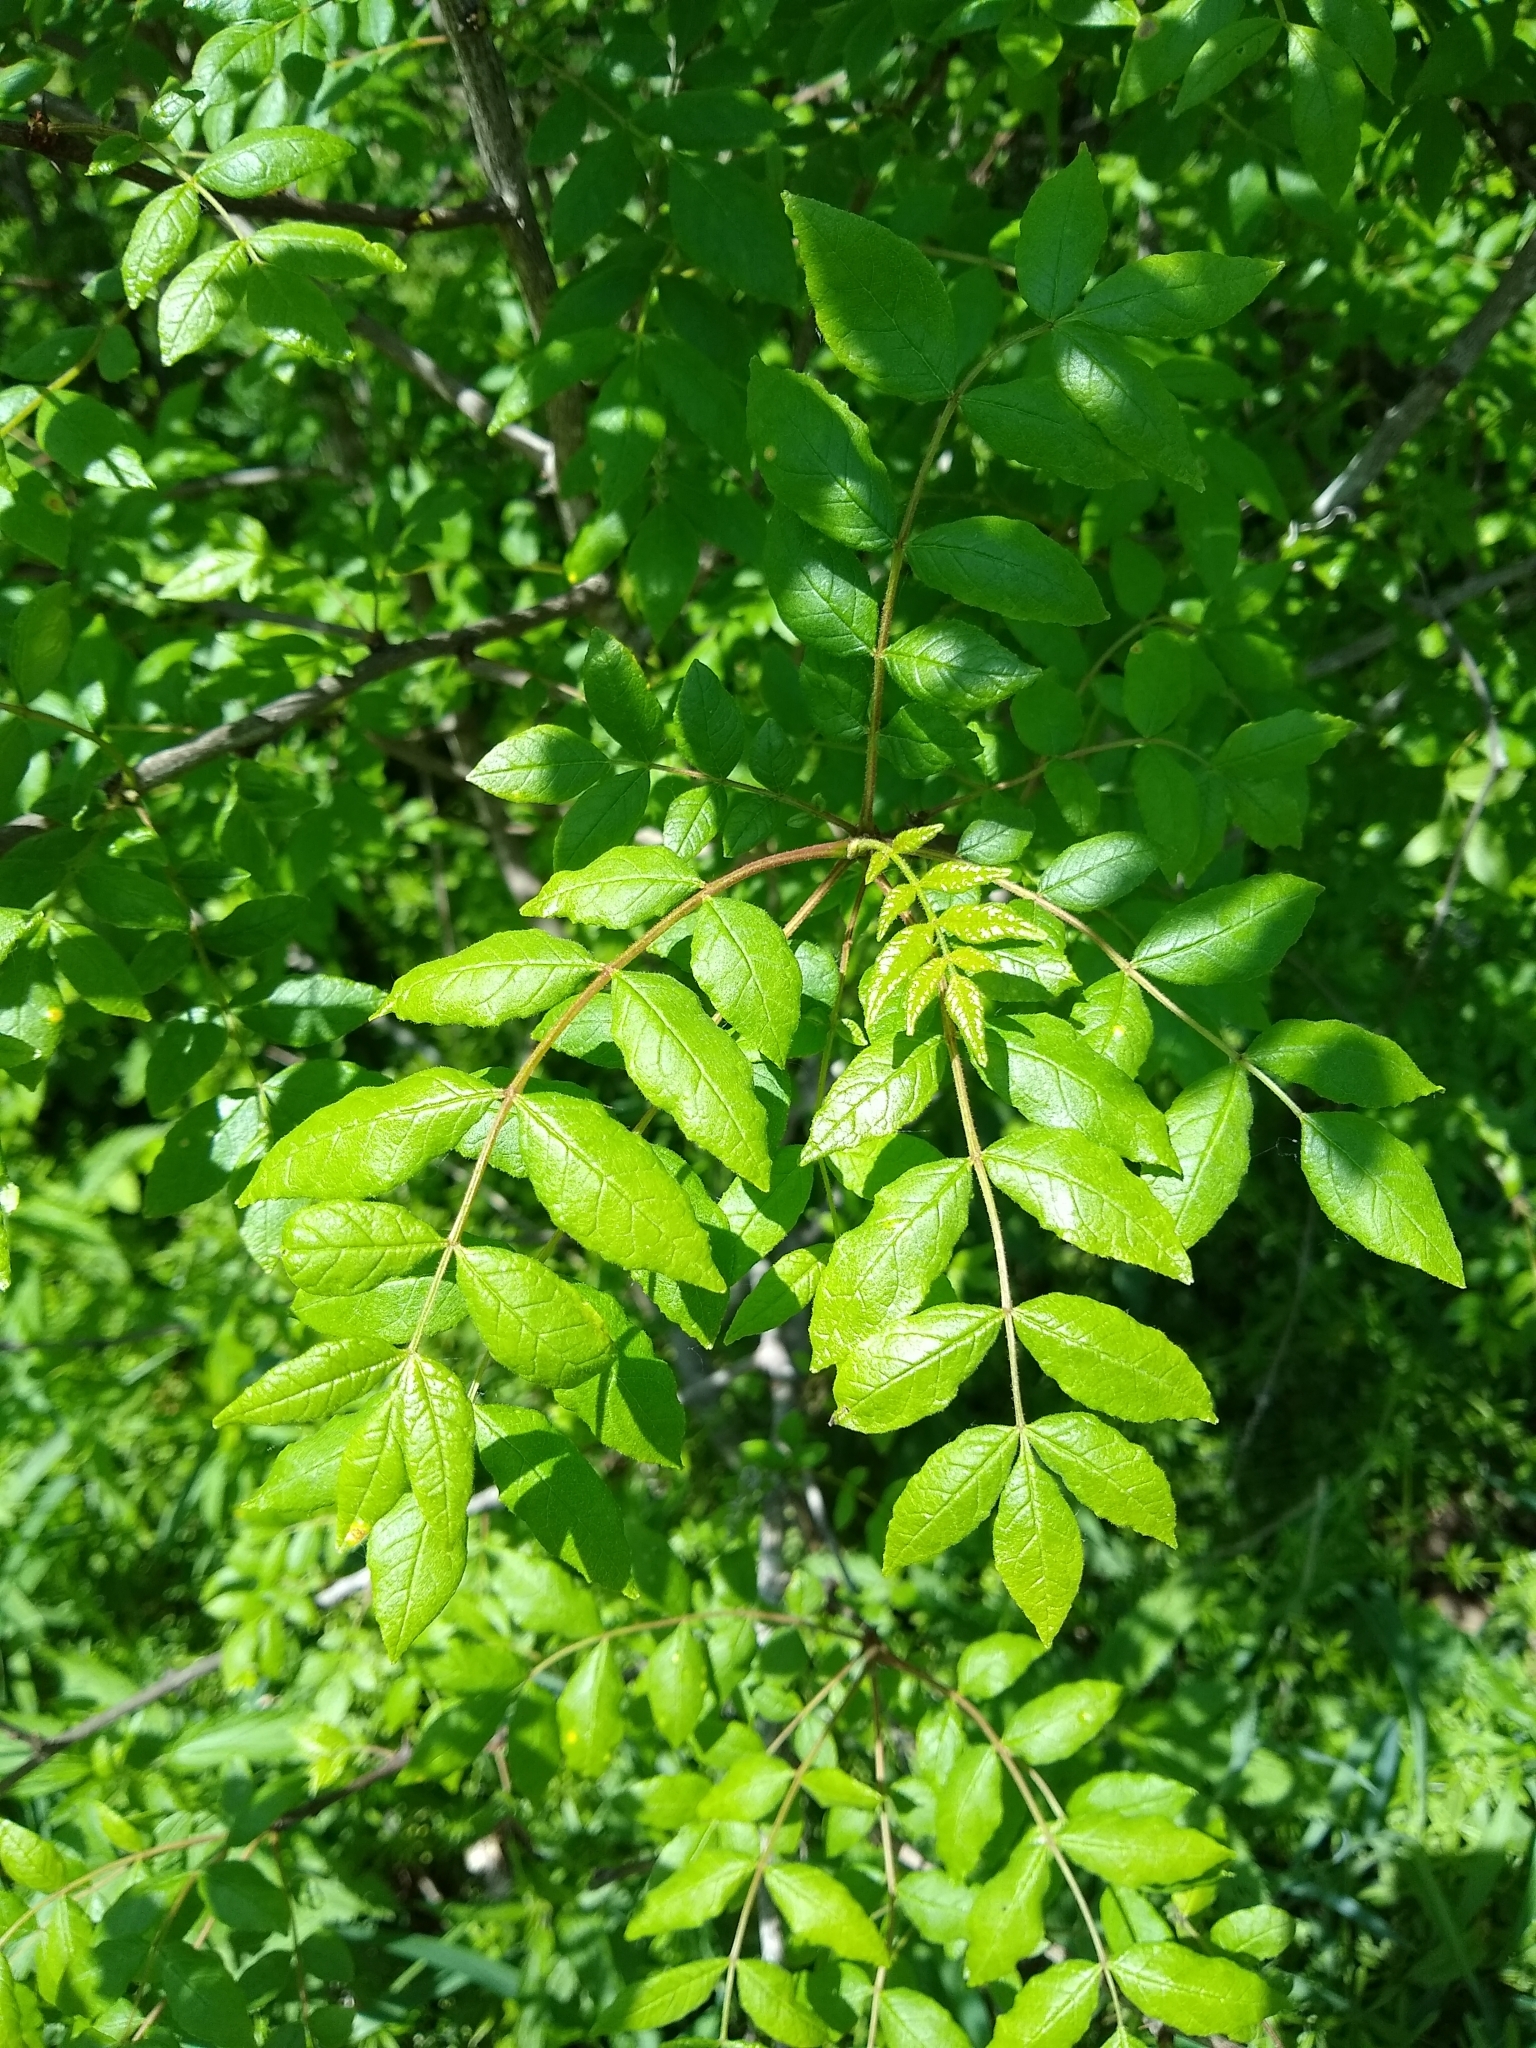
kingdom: Plantae
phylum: Tracheophyta
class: Magnoliopsida
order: Sapindales
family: Rutaceae
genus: Zanthoxylum
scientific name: Zanthoxylum americanum
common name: Northern prickly-ash
